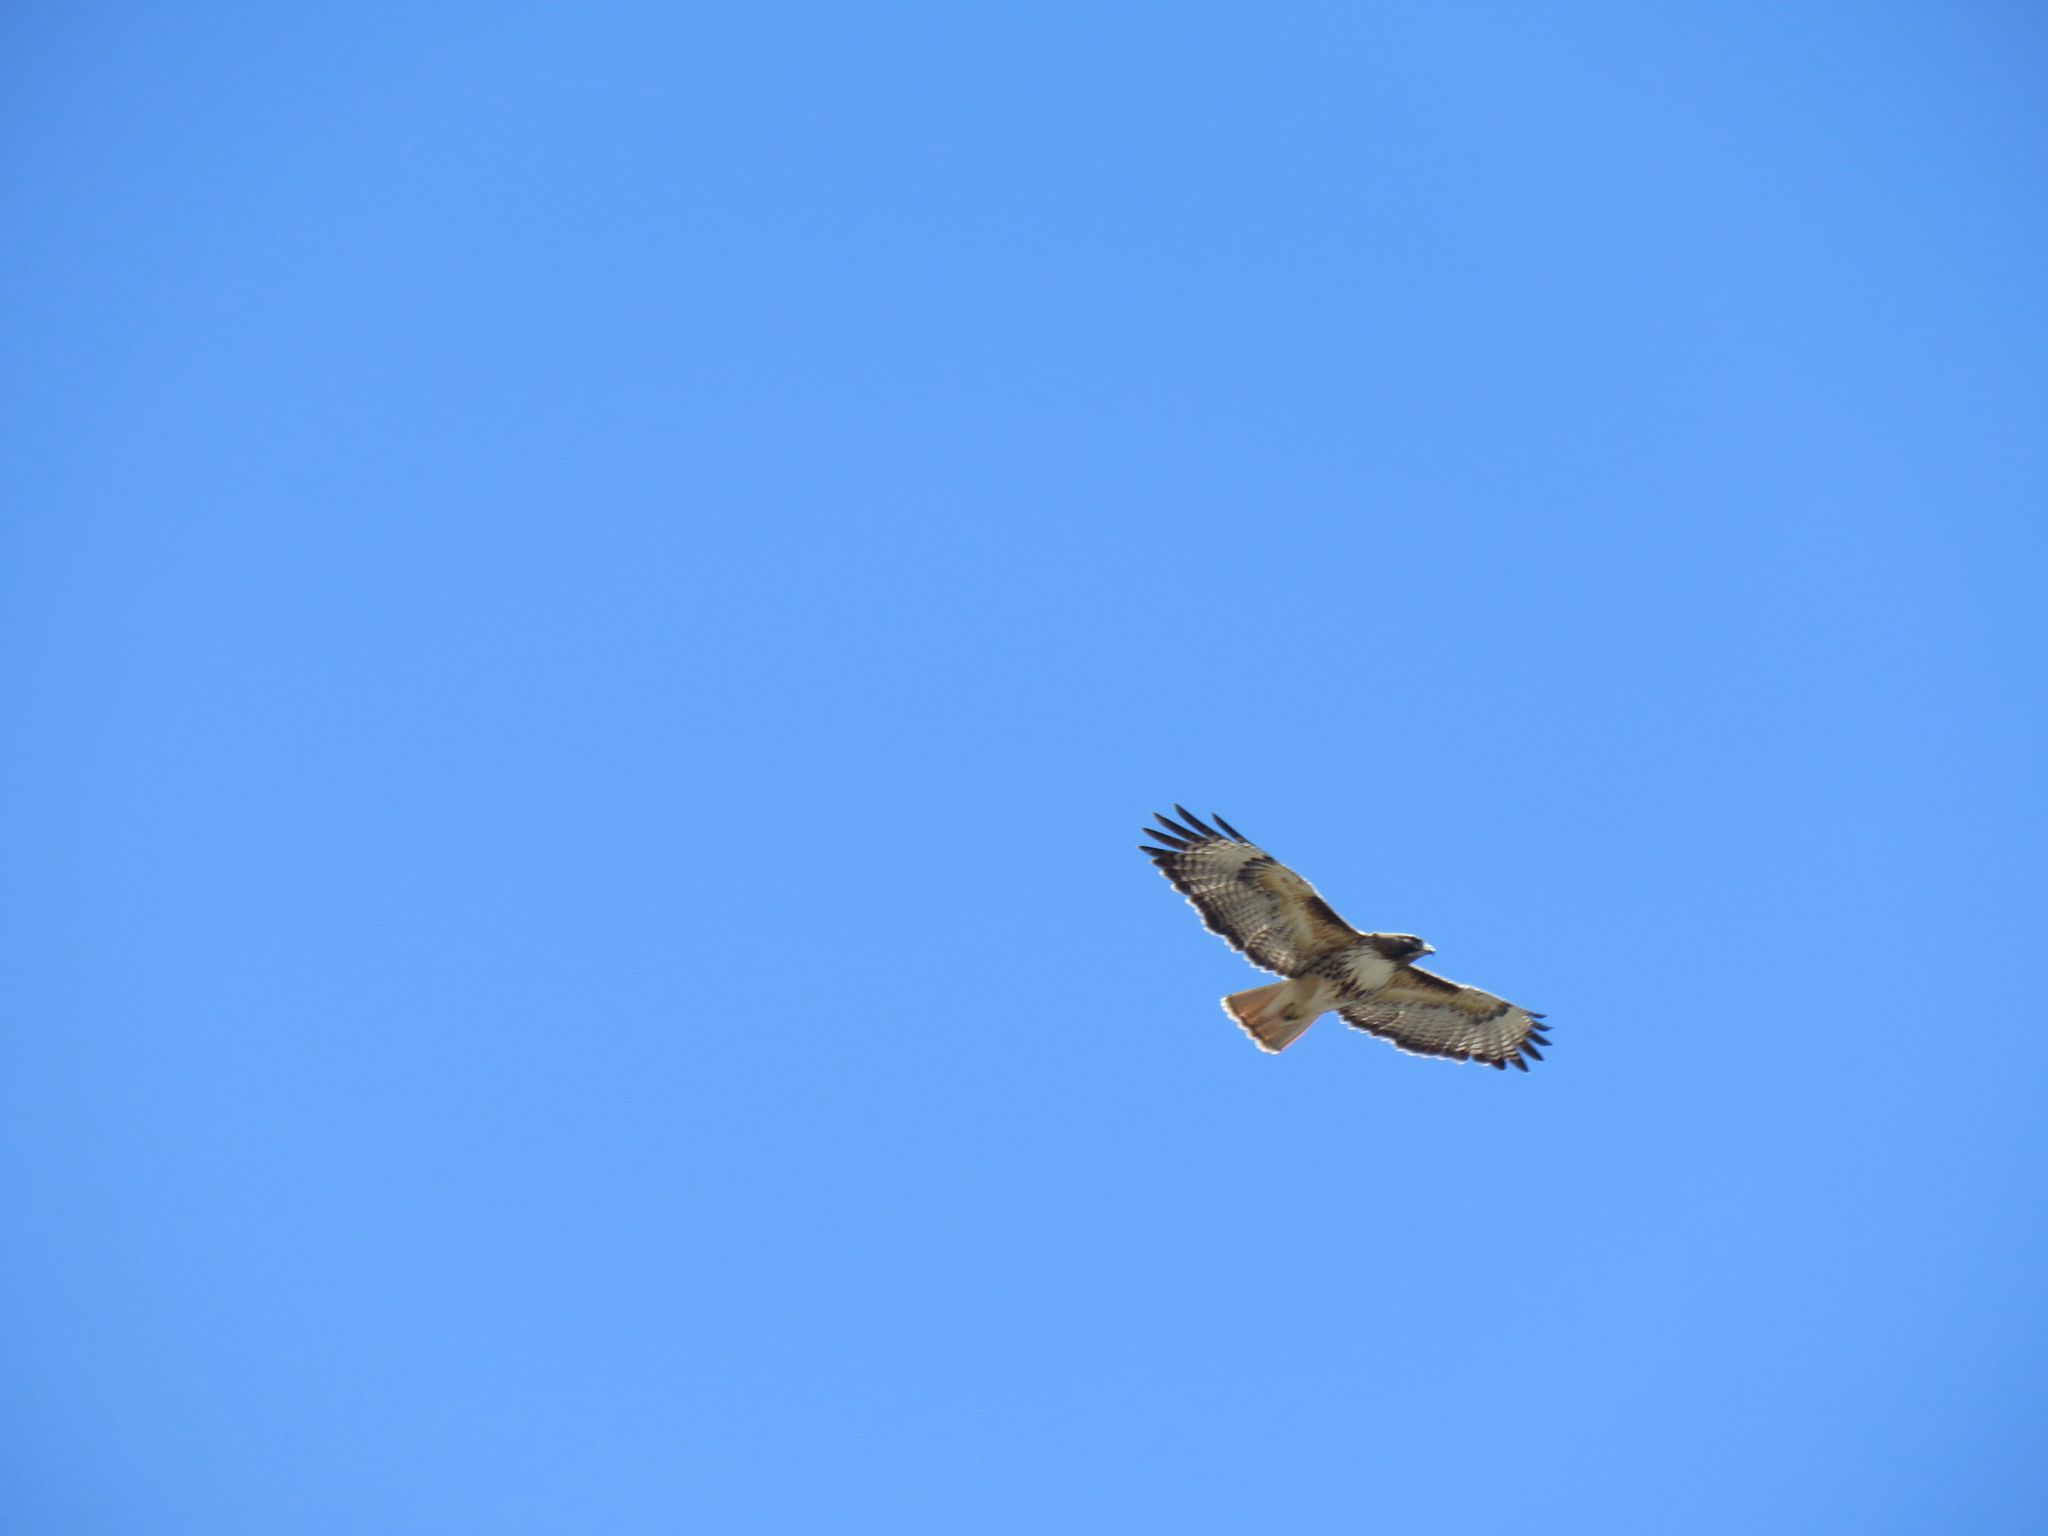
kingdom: Animalia
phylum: Chordata
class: Aves
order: Accipitriformes
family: Accipitridae
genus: Buteo
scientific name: Buteo jamaicensis
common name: Red-tailed hawk
